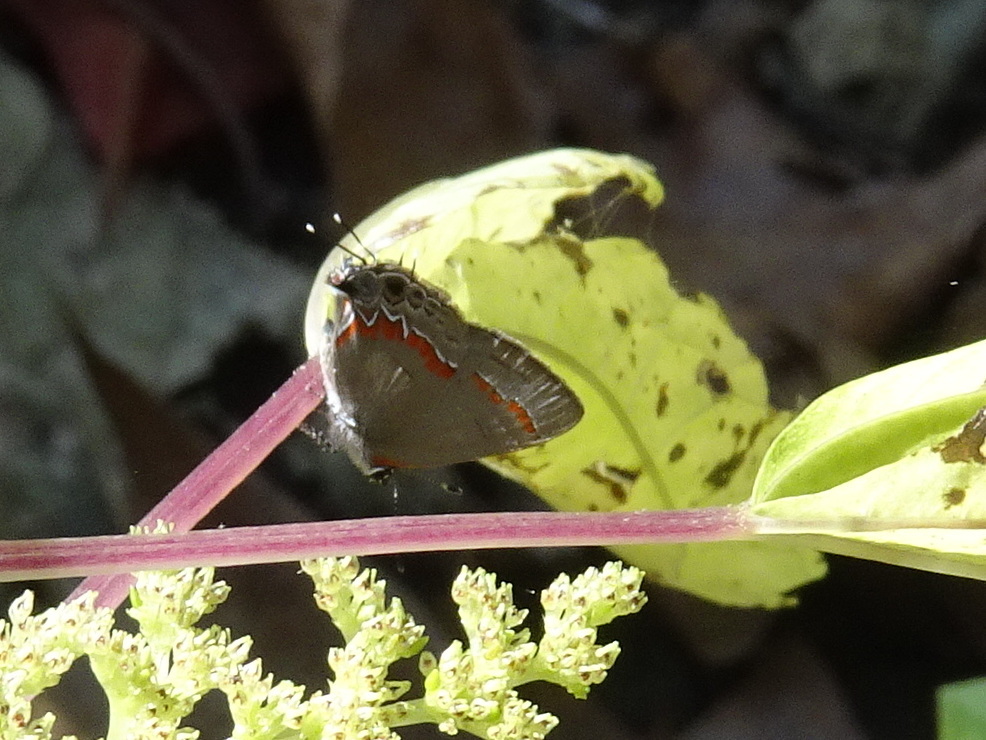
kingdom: Animalia
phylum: Arthropoda
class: Insecta
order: Lepidoptera
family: Lycaenidae
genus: Calycopis
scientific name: Calycopis cecrops
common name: Red-banded hairstreak
